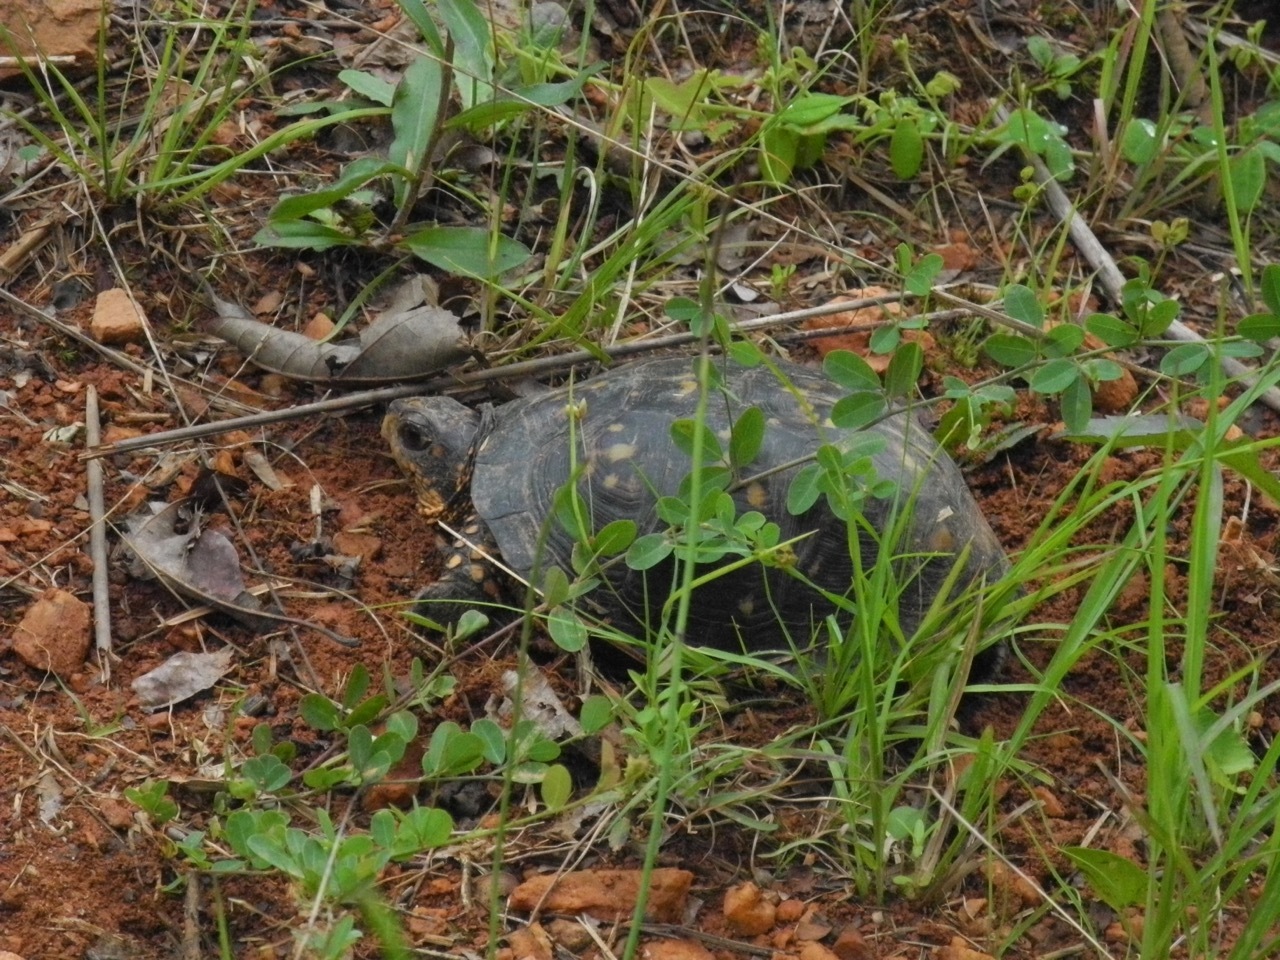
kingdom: Animalia
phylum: Chordata
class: Testudines
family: Emydidae
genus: Terrapene
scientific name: Terrapene carolina
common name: Common box turtle
